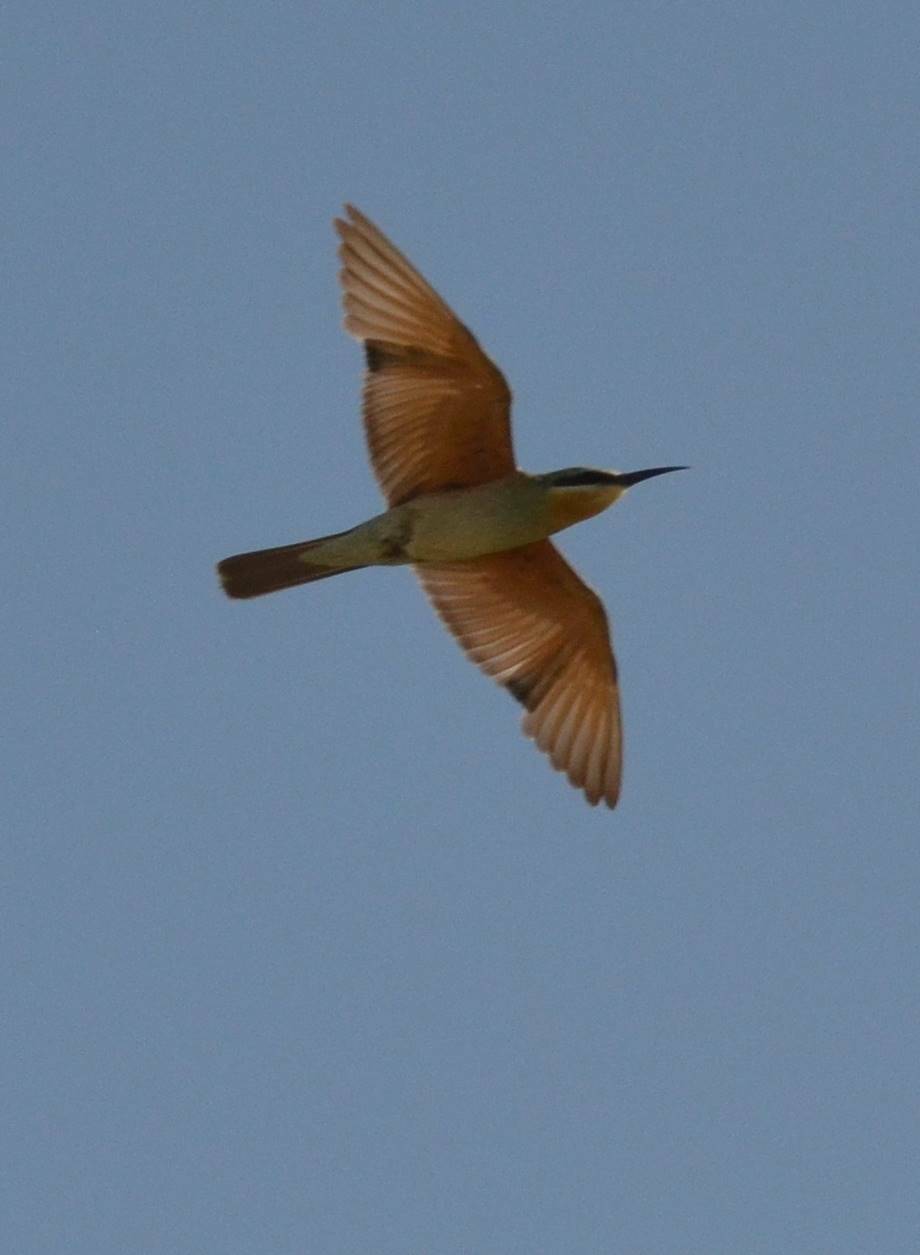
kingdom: Animalia
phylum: Chordata
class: Aves
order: Coraciiformes
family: Meropidae
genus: Merops
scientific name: Merops persicus
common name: Blue-cheeked bee-eater
